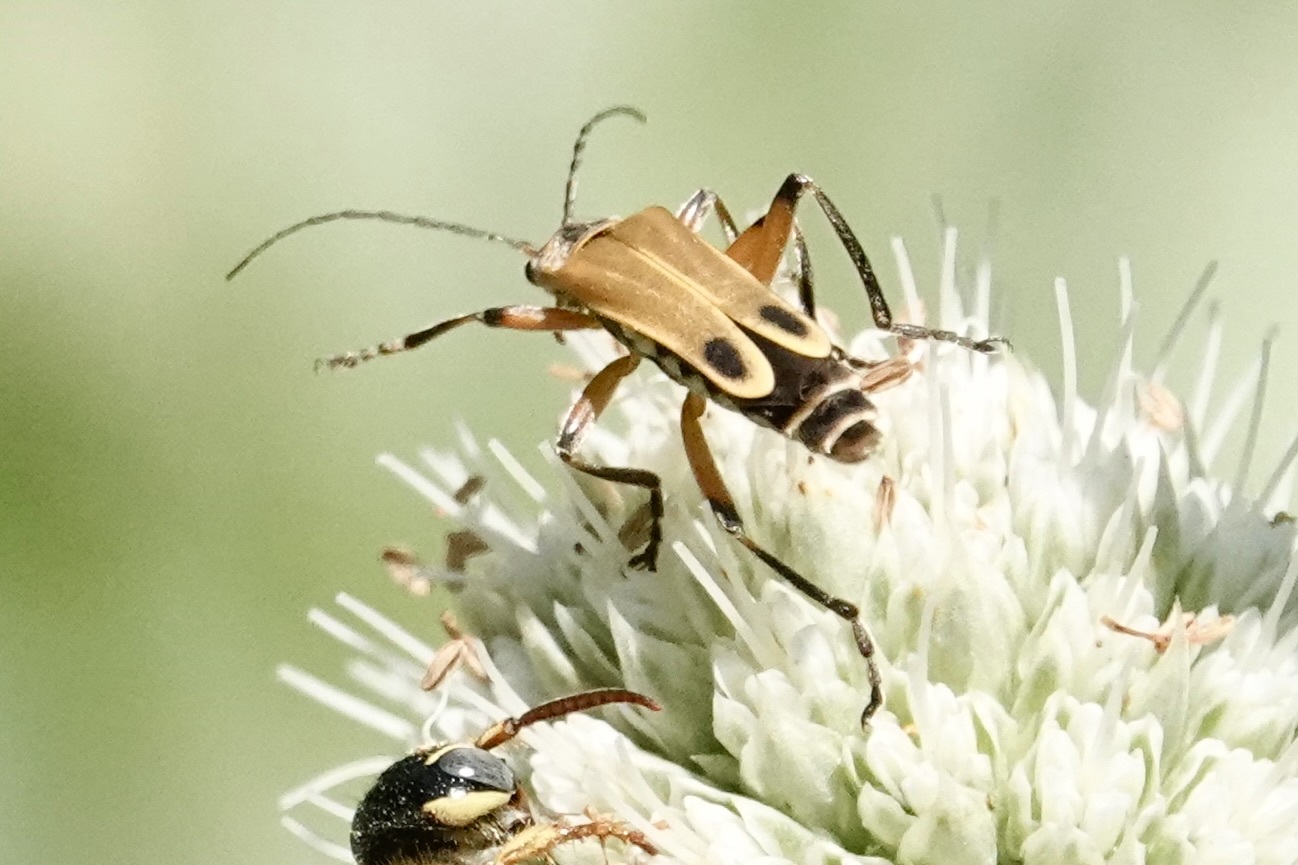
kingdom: Animalia
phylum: Arthropoda
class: Insecta
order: Coleoptera
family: Cantharidae
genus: Chauliognathus
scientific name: Chauliognathus marginatus
